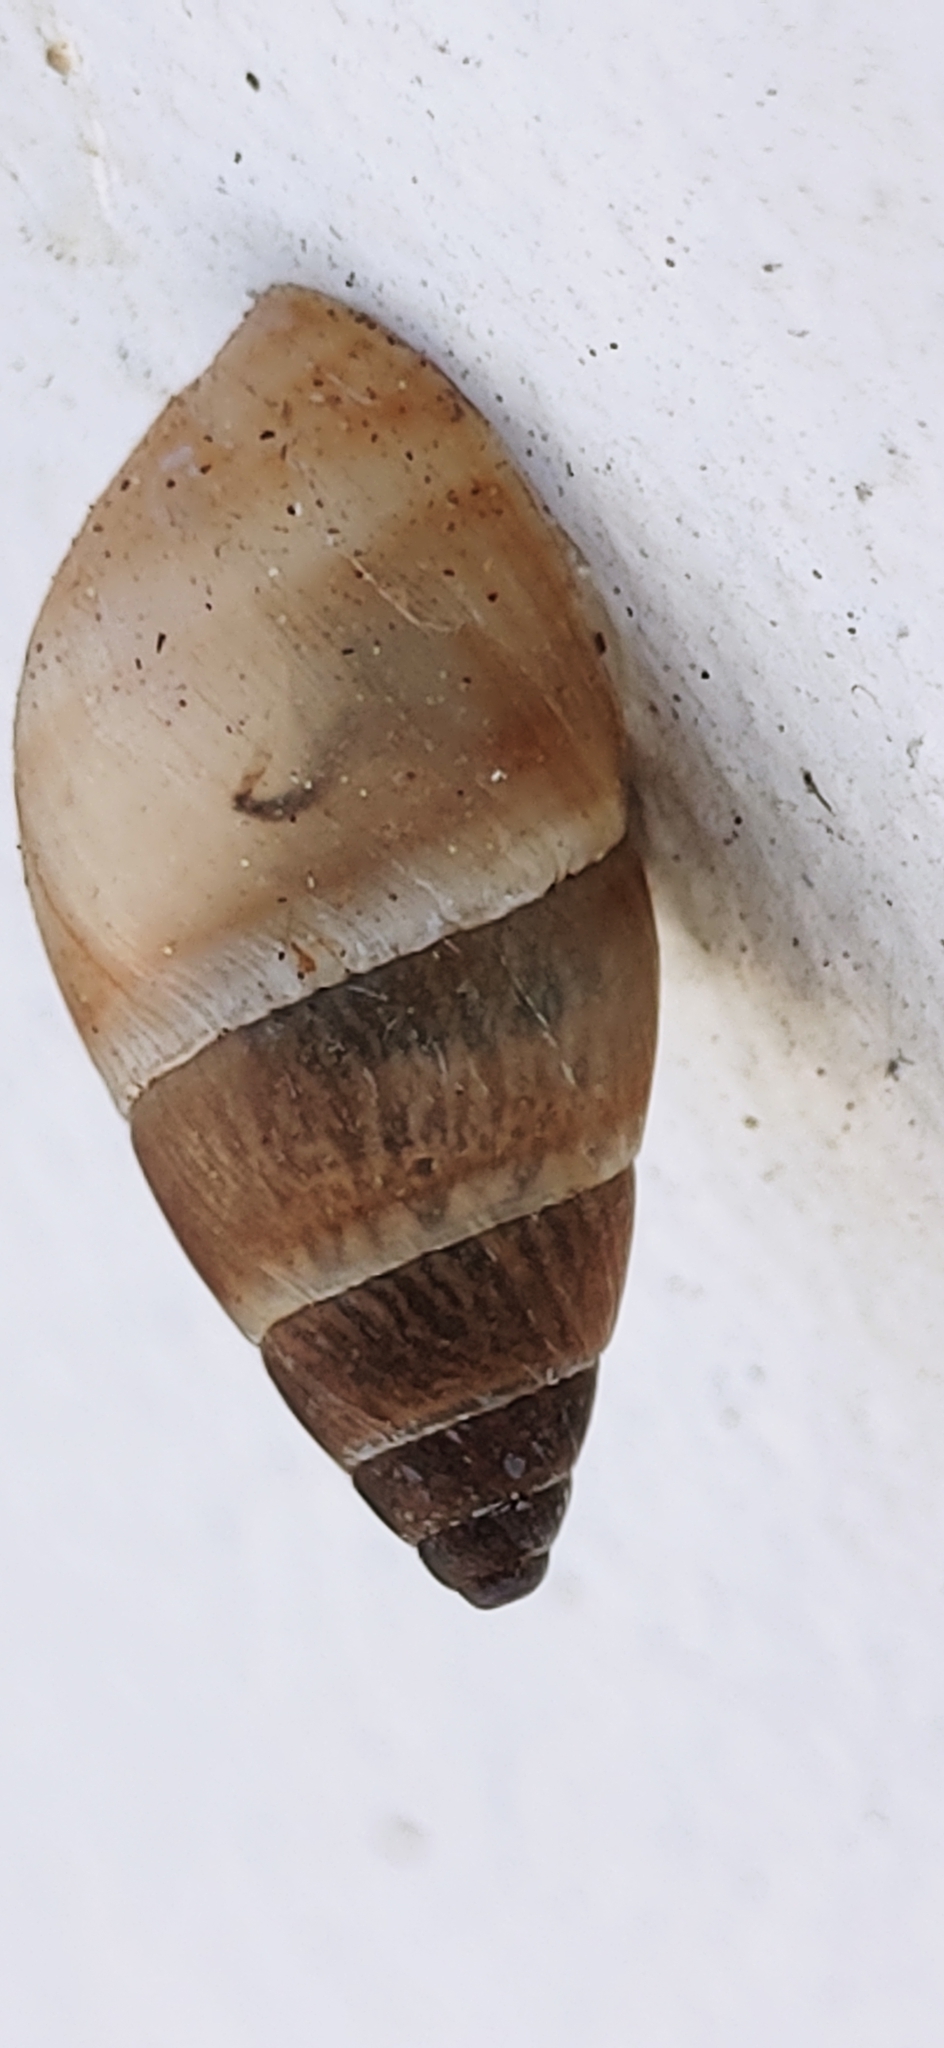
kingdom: Animalia
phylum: Mollusca
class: Gastropoda
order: Stylommatophora
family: Bulimulidae
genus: Bulimulus
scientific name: Bulimulus guadalupensis
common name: West indian bulimulus
